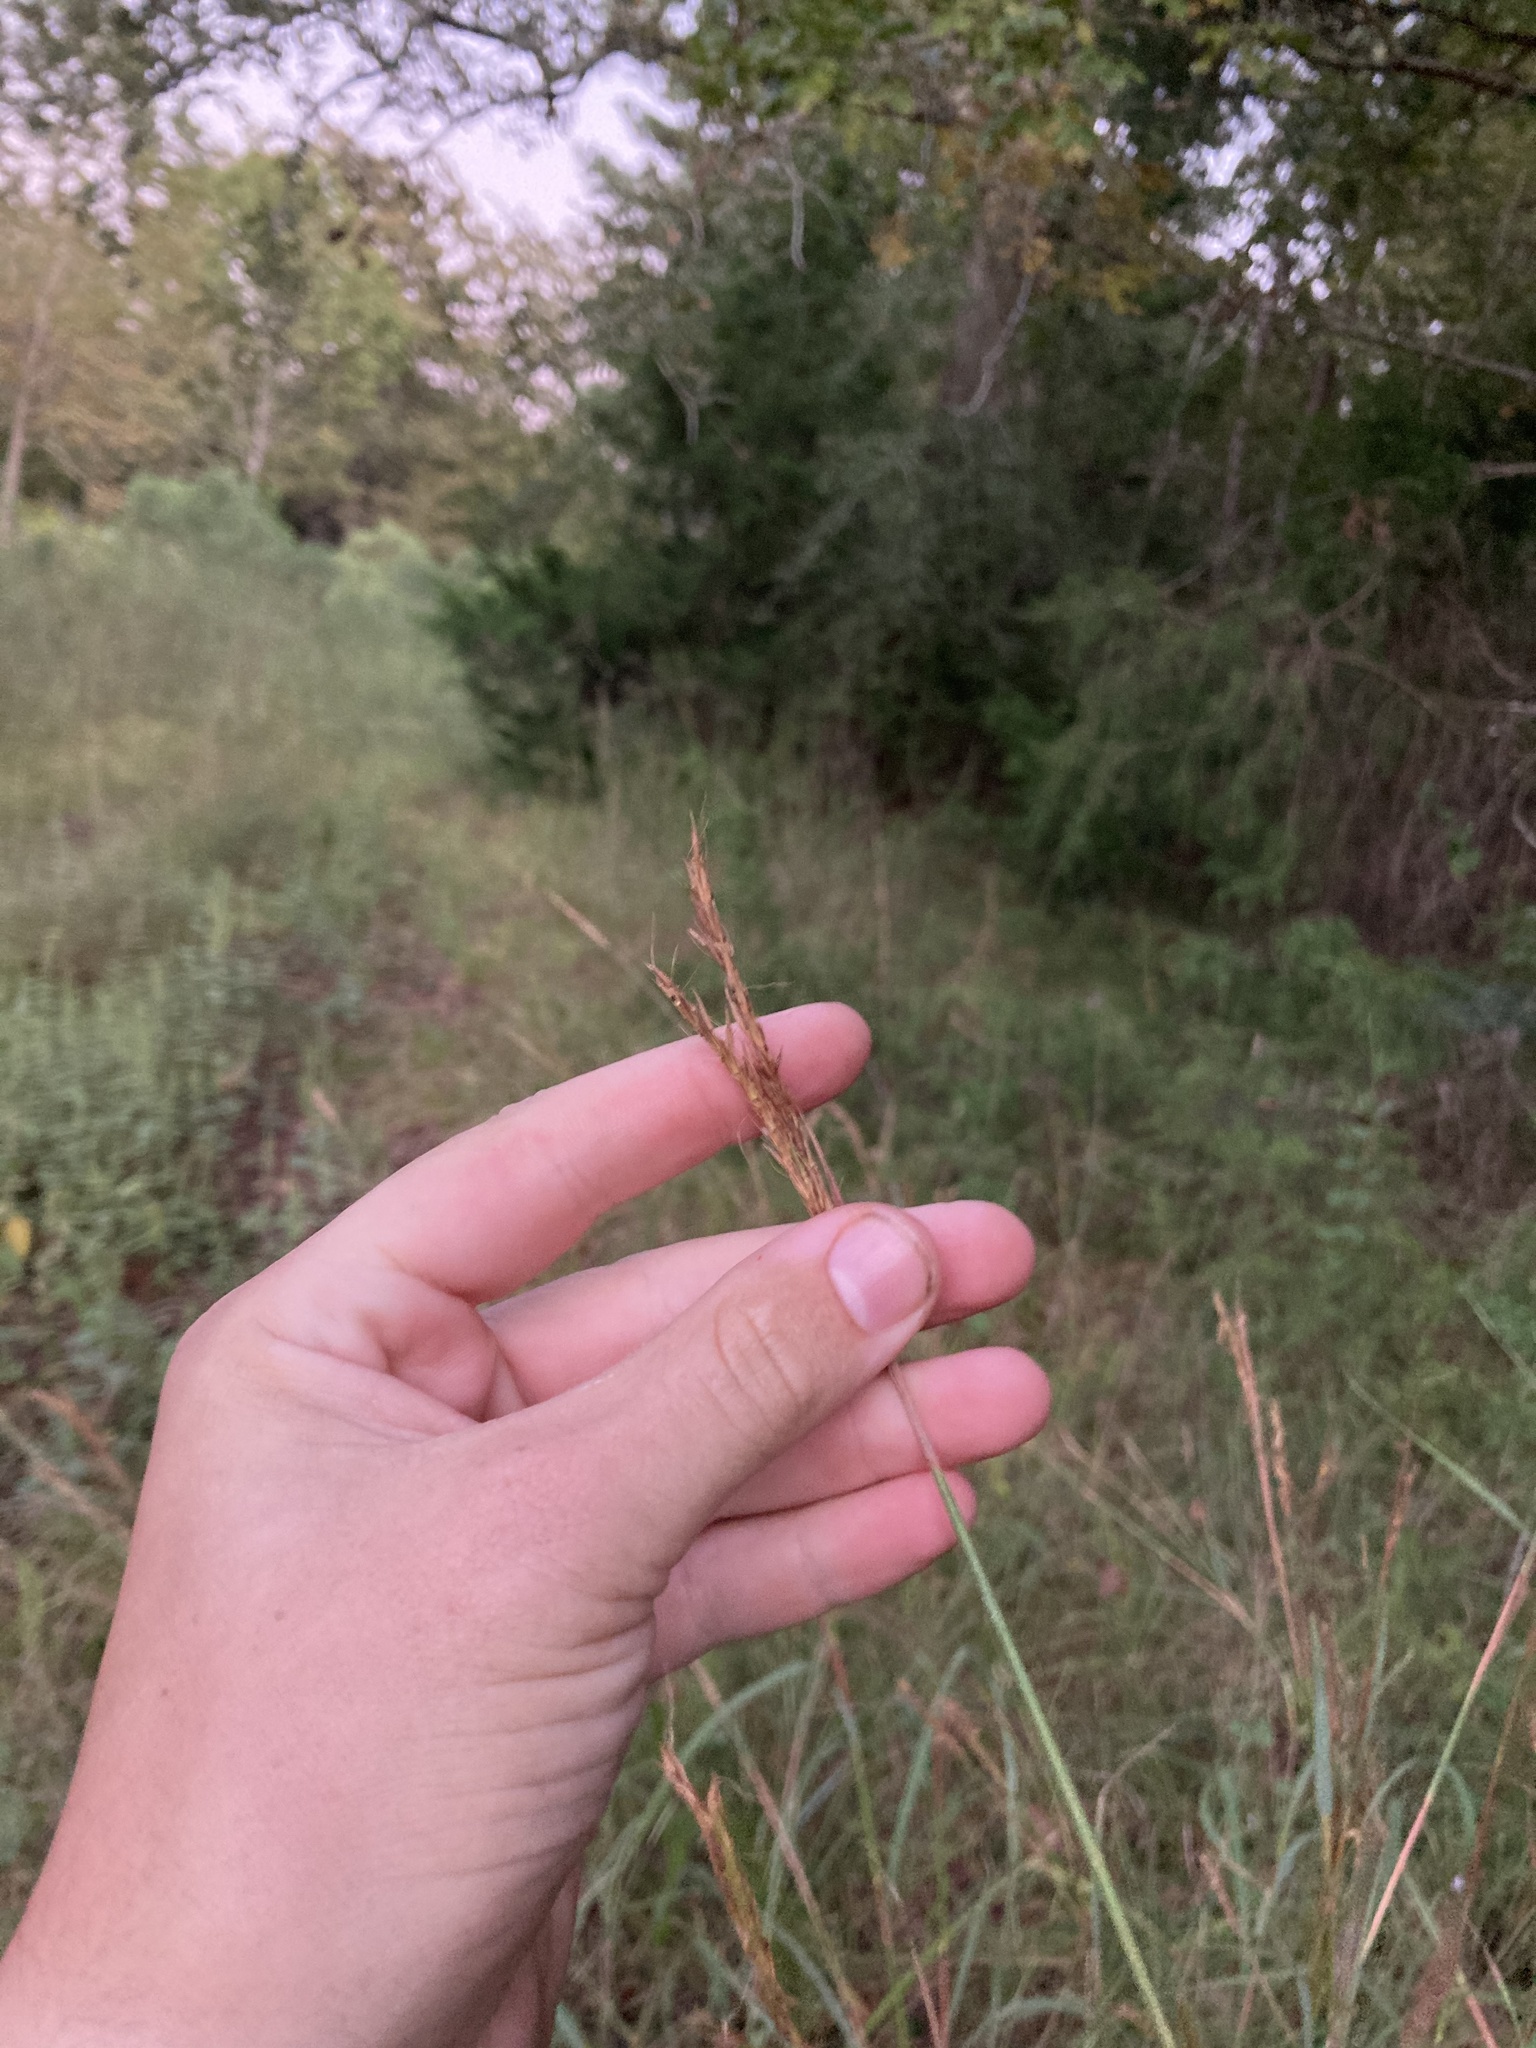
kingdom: Plantae
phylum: Tracheophyta
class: Liliopsida
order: Poales
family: Poaceae
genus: Andropogon
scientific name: Andropogon gerardi
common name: Big bluestem
